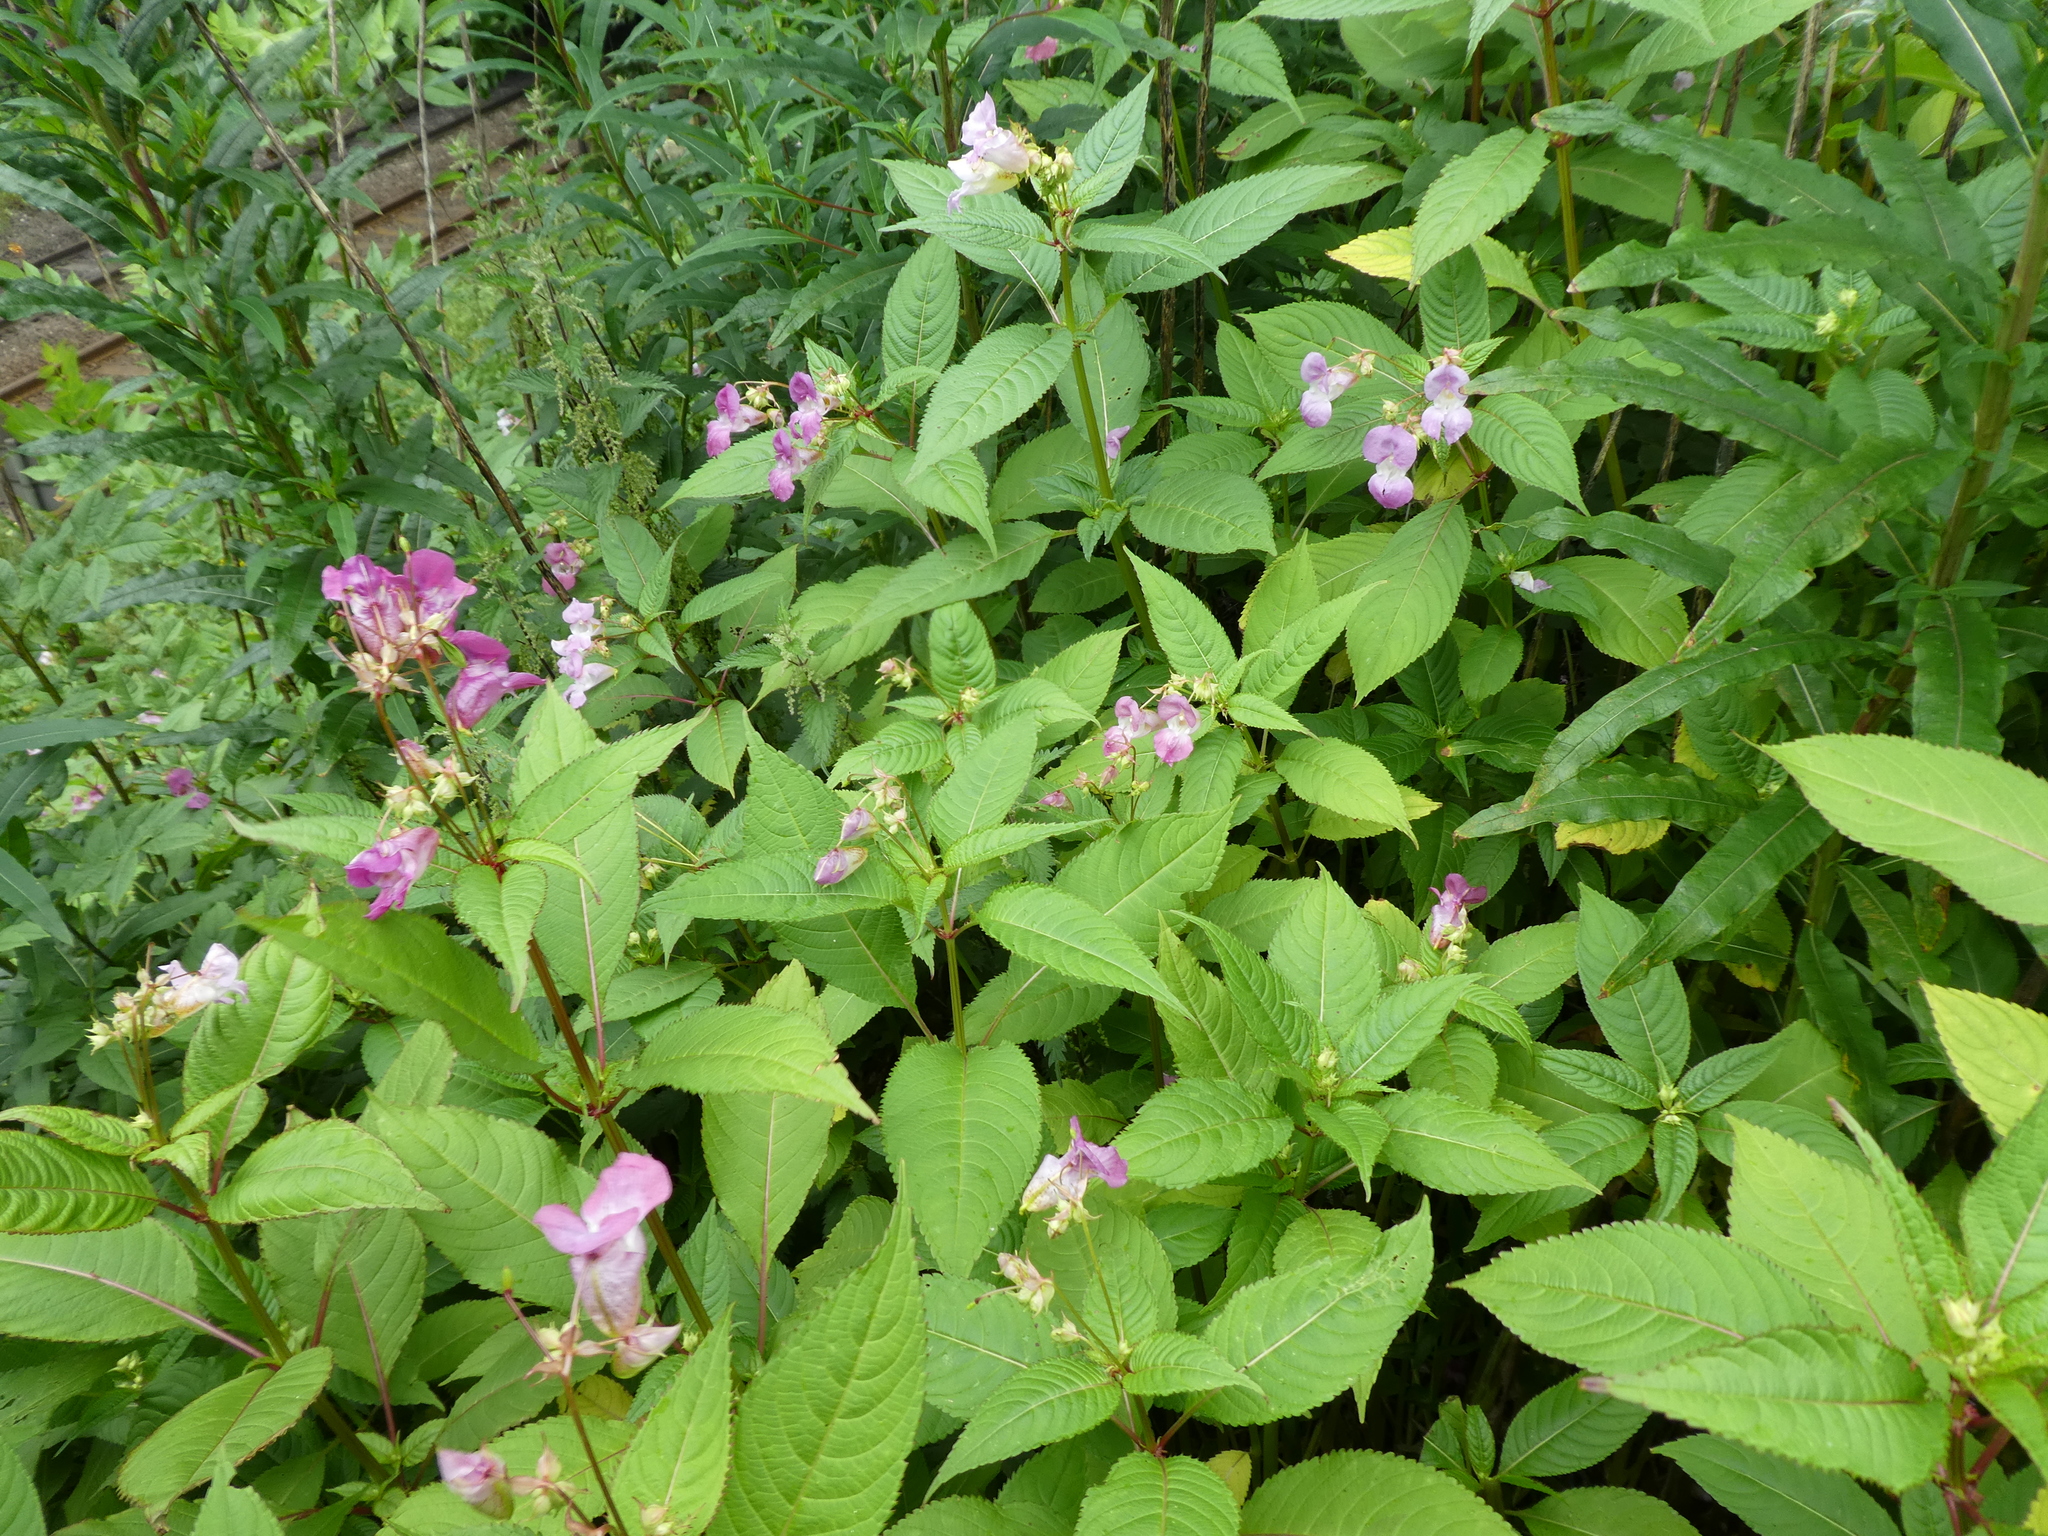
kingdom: Plantae
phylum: Tracheophyta
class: Magnoliopsida
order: Ericales
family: Balsaminaceae
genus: Impatiens
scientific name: Impatiens glandulifera
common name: Himalayan balsam
